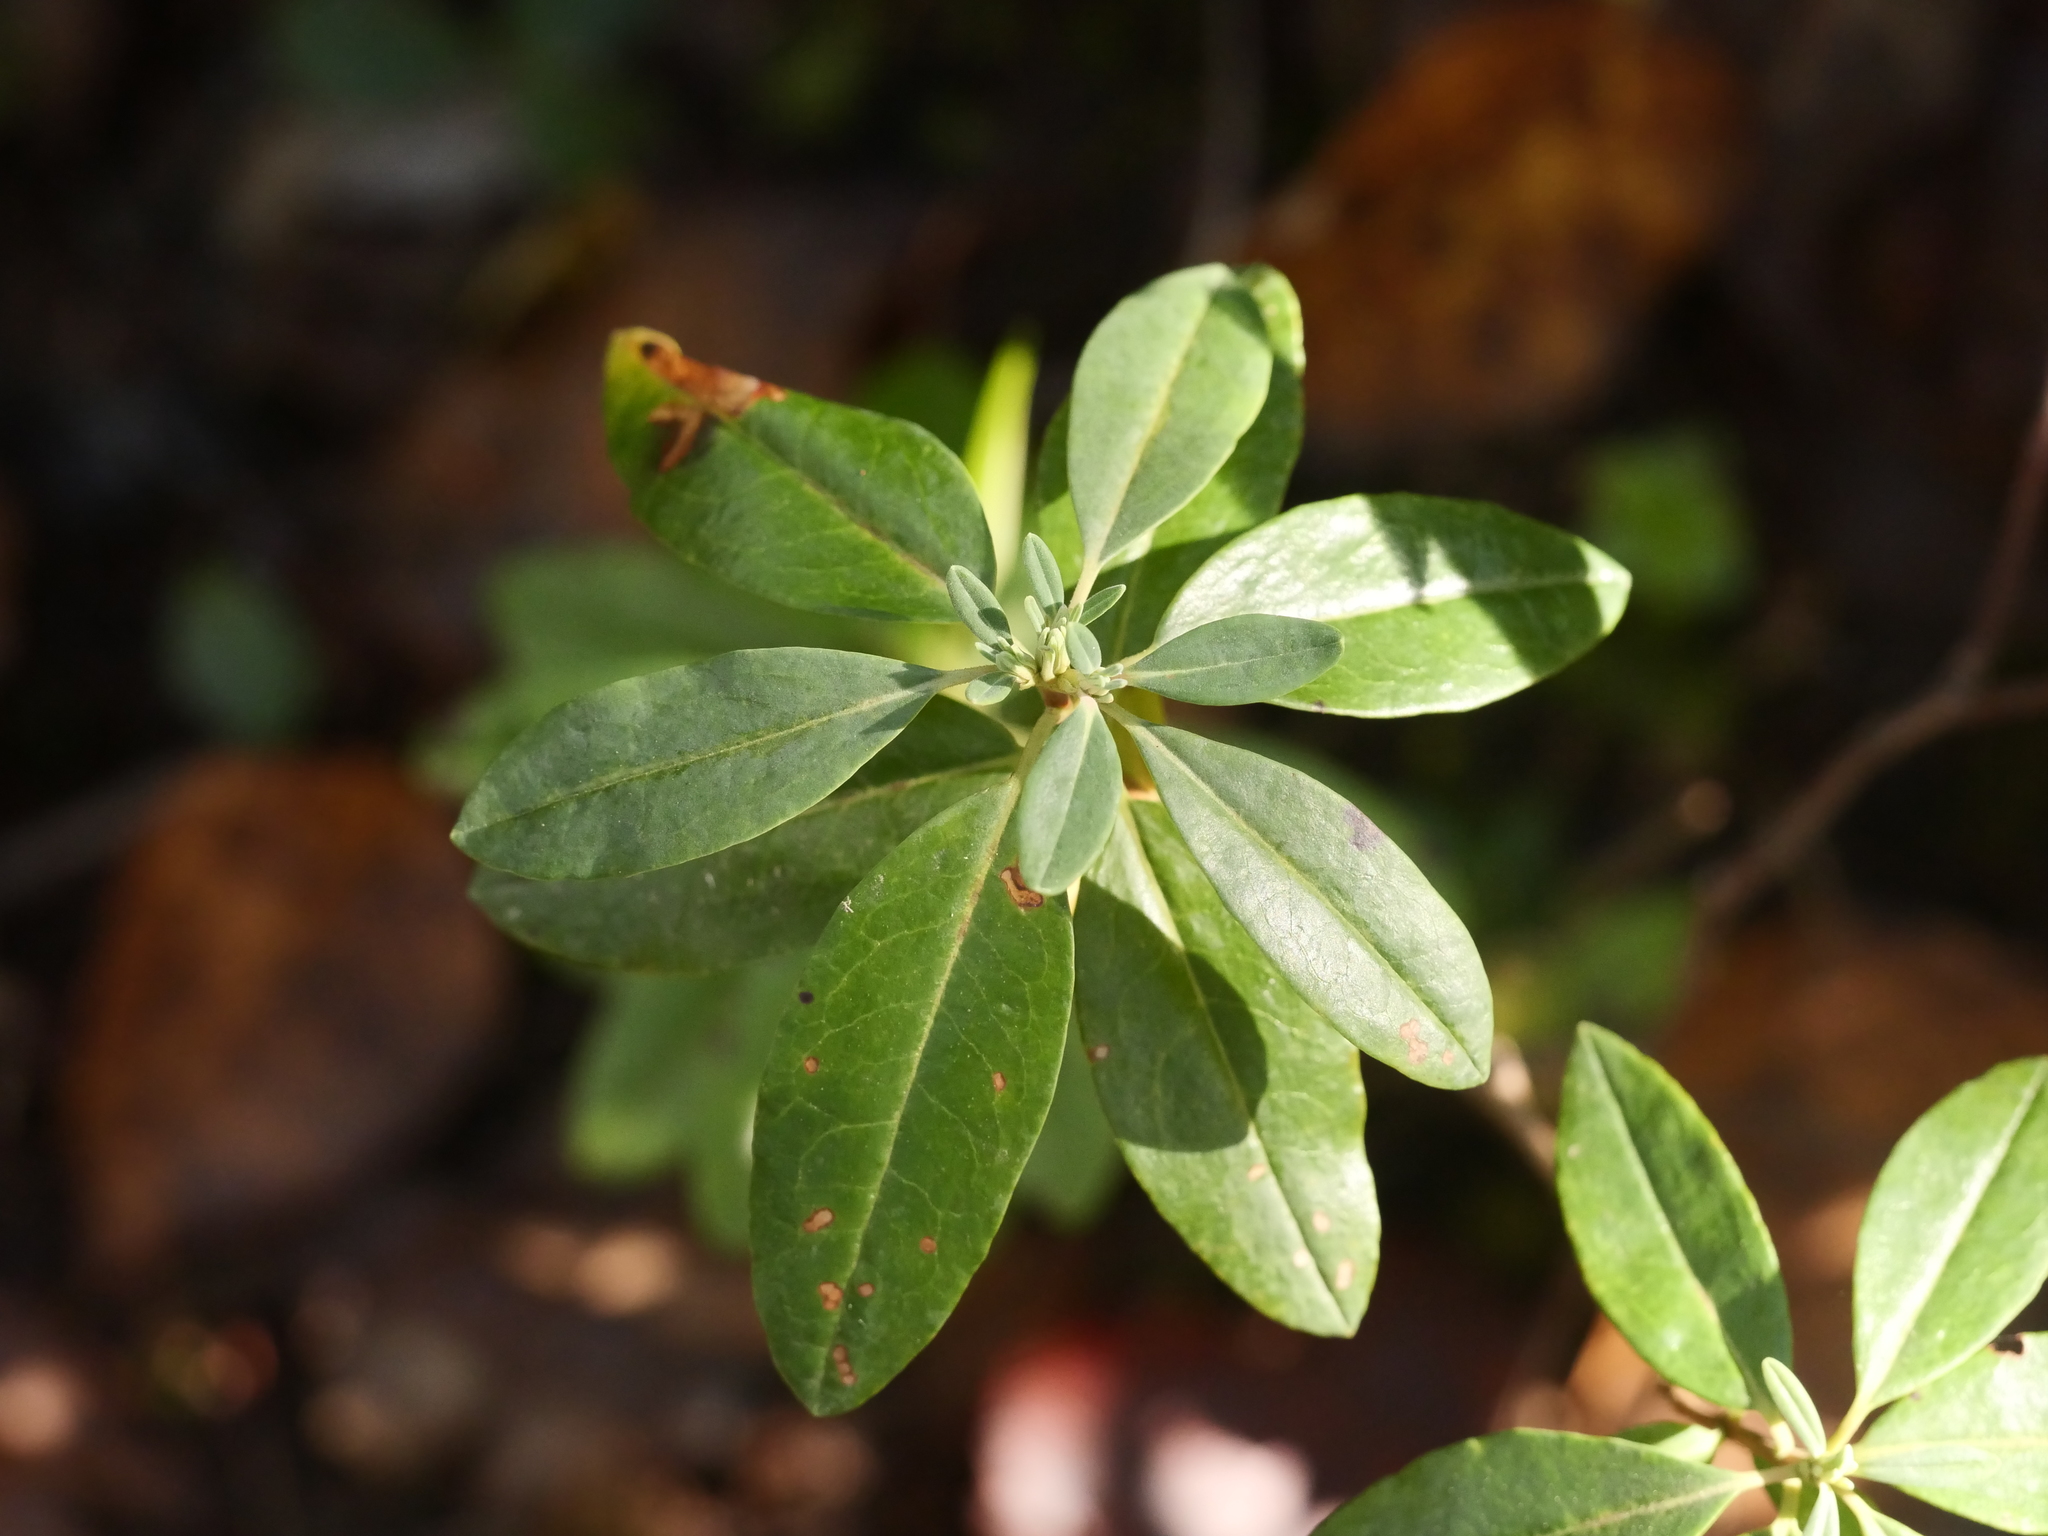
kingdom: Plantae
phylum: Tracheophyta
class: Magnoliopsida
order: Ericales
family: Ericaceae
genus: Kalmia
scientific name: Kalmia angustifolia
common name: Sheep-laurel
